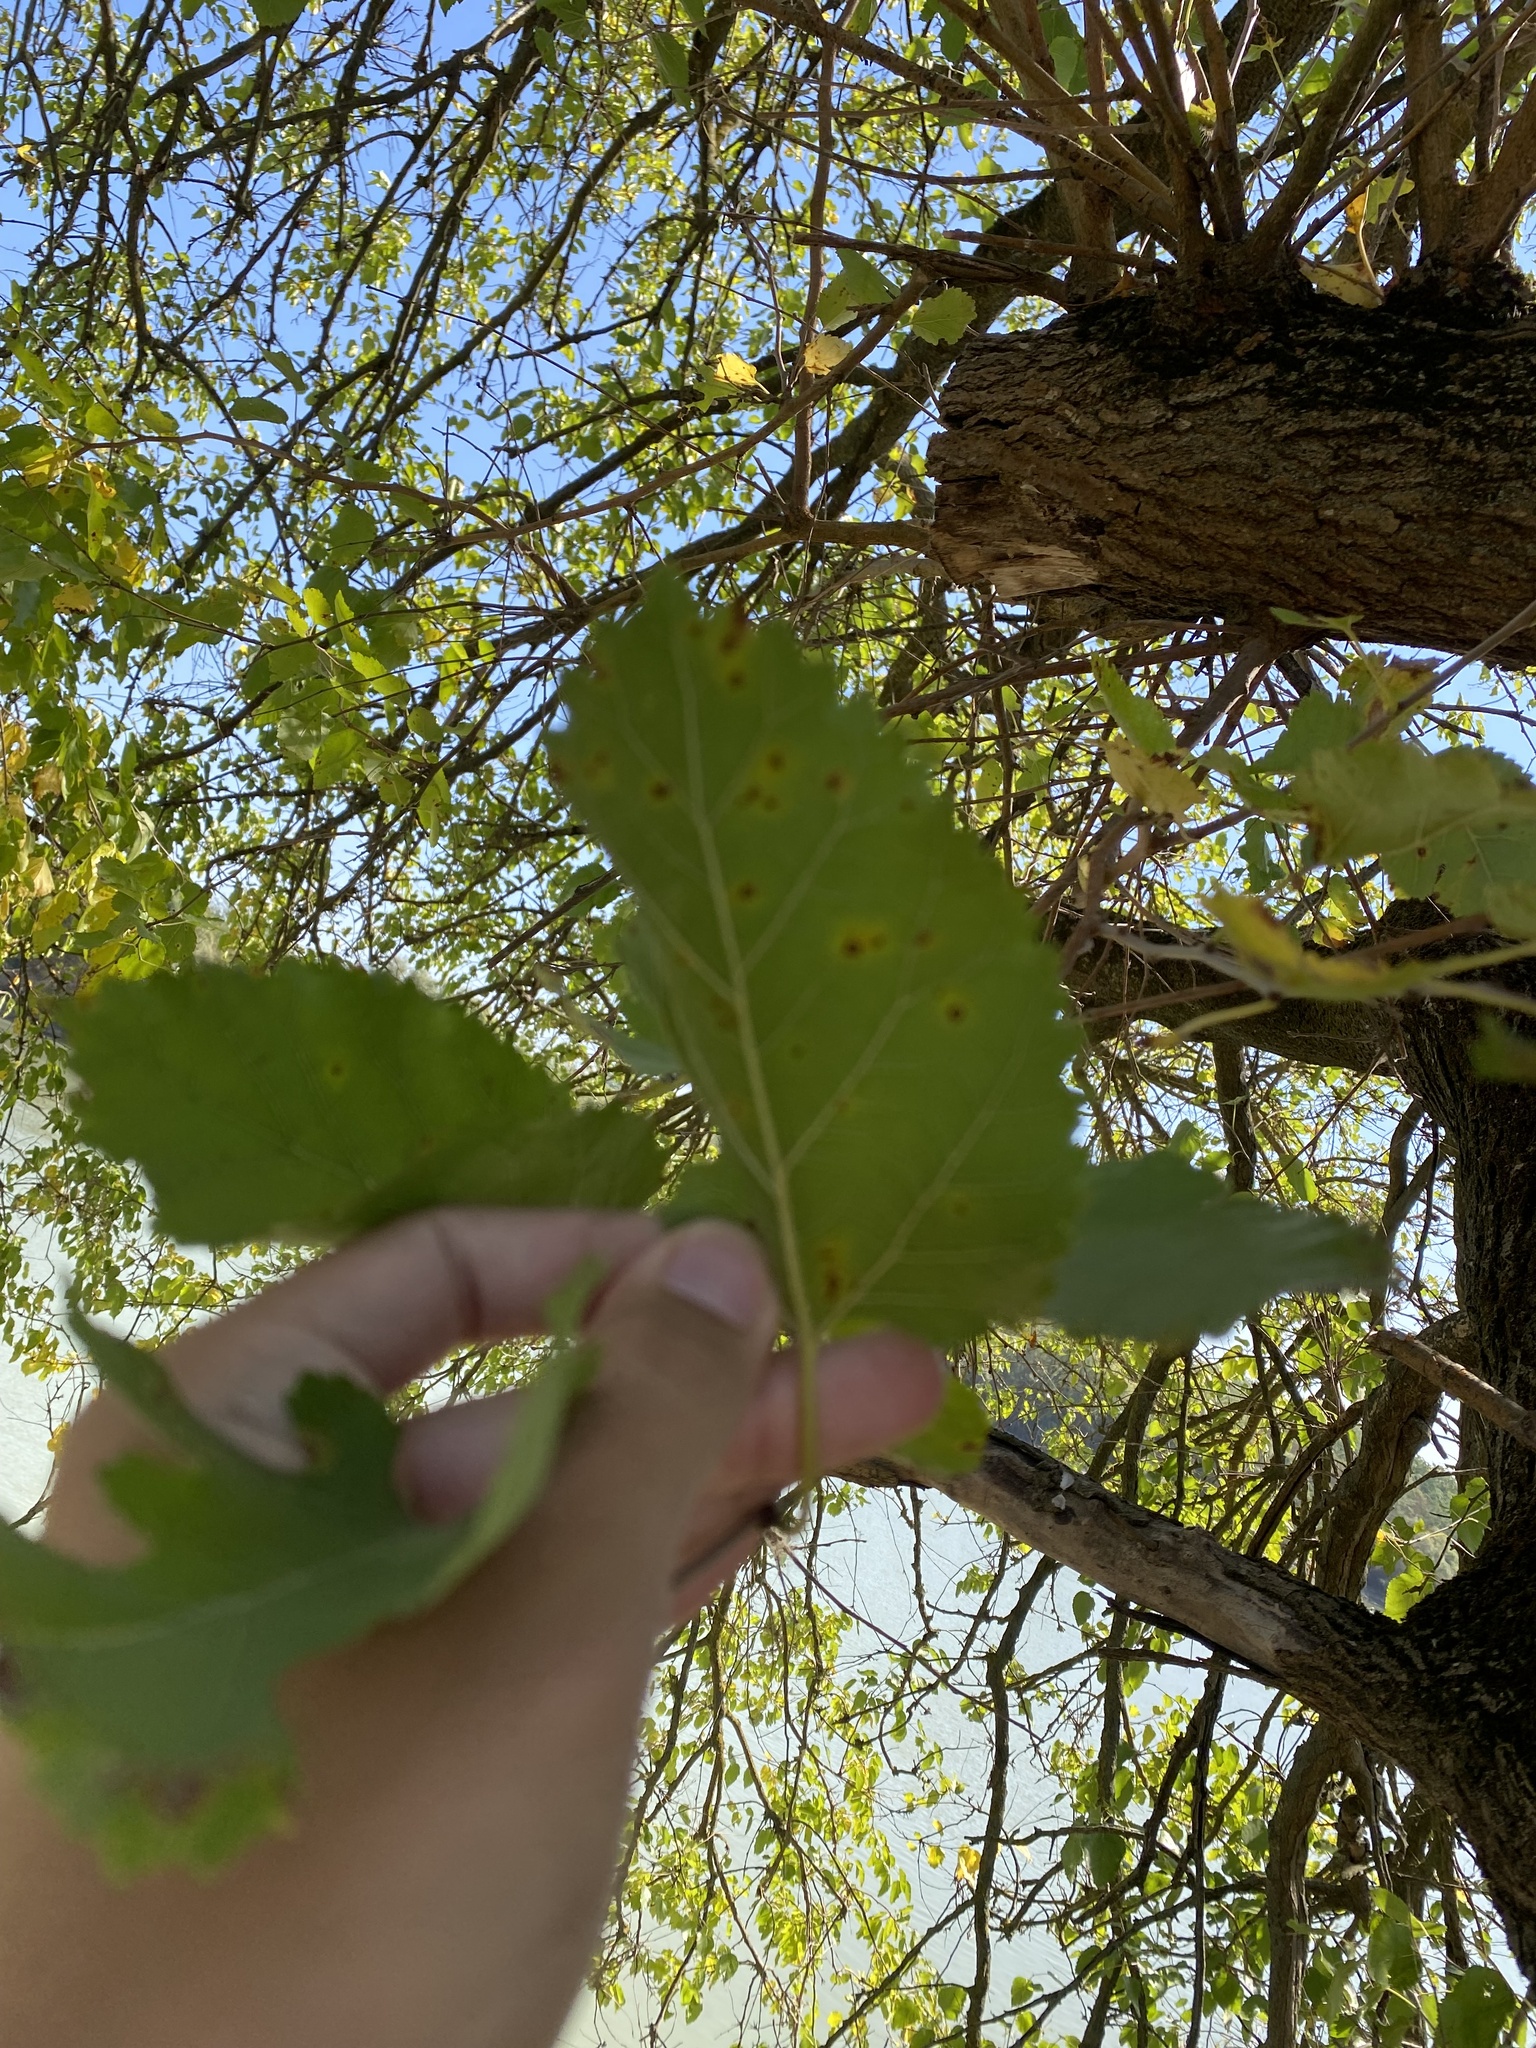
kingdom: Plantae
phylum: Tracheophyta
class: Magnoliopsida
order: Rosales
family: Moraceae
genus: Morus
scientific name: Morus alba
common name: White mulberry
